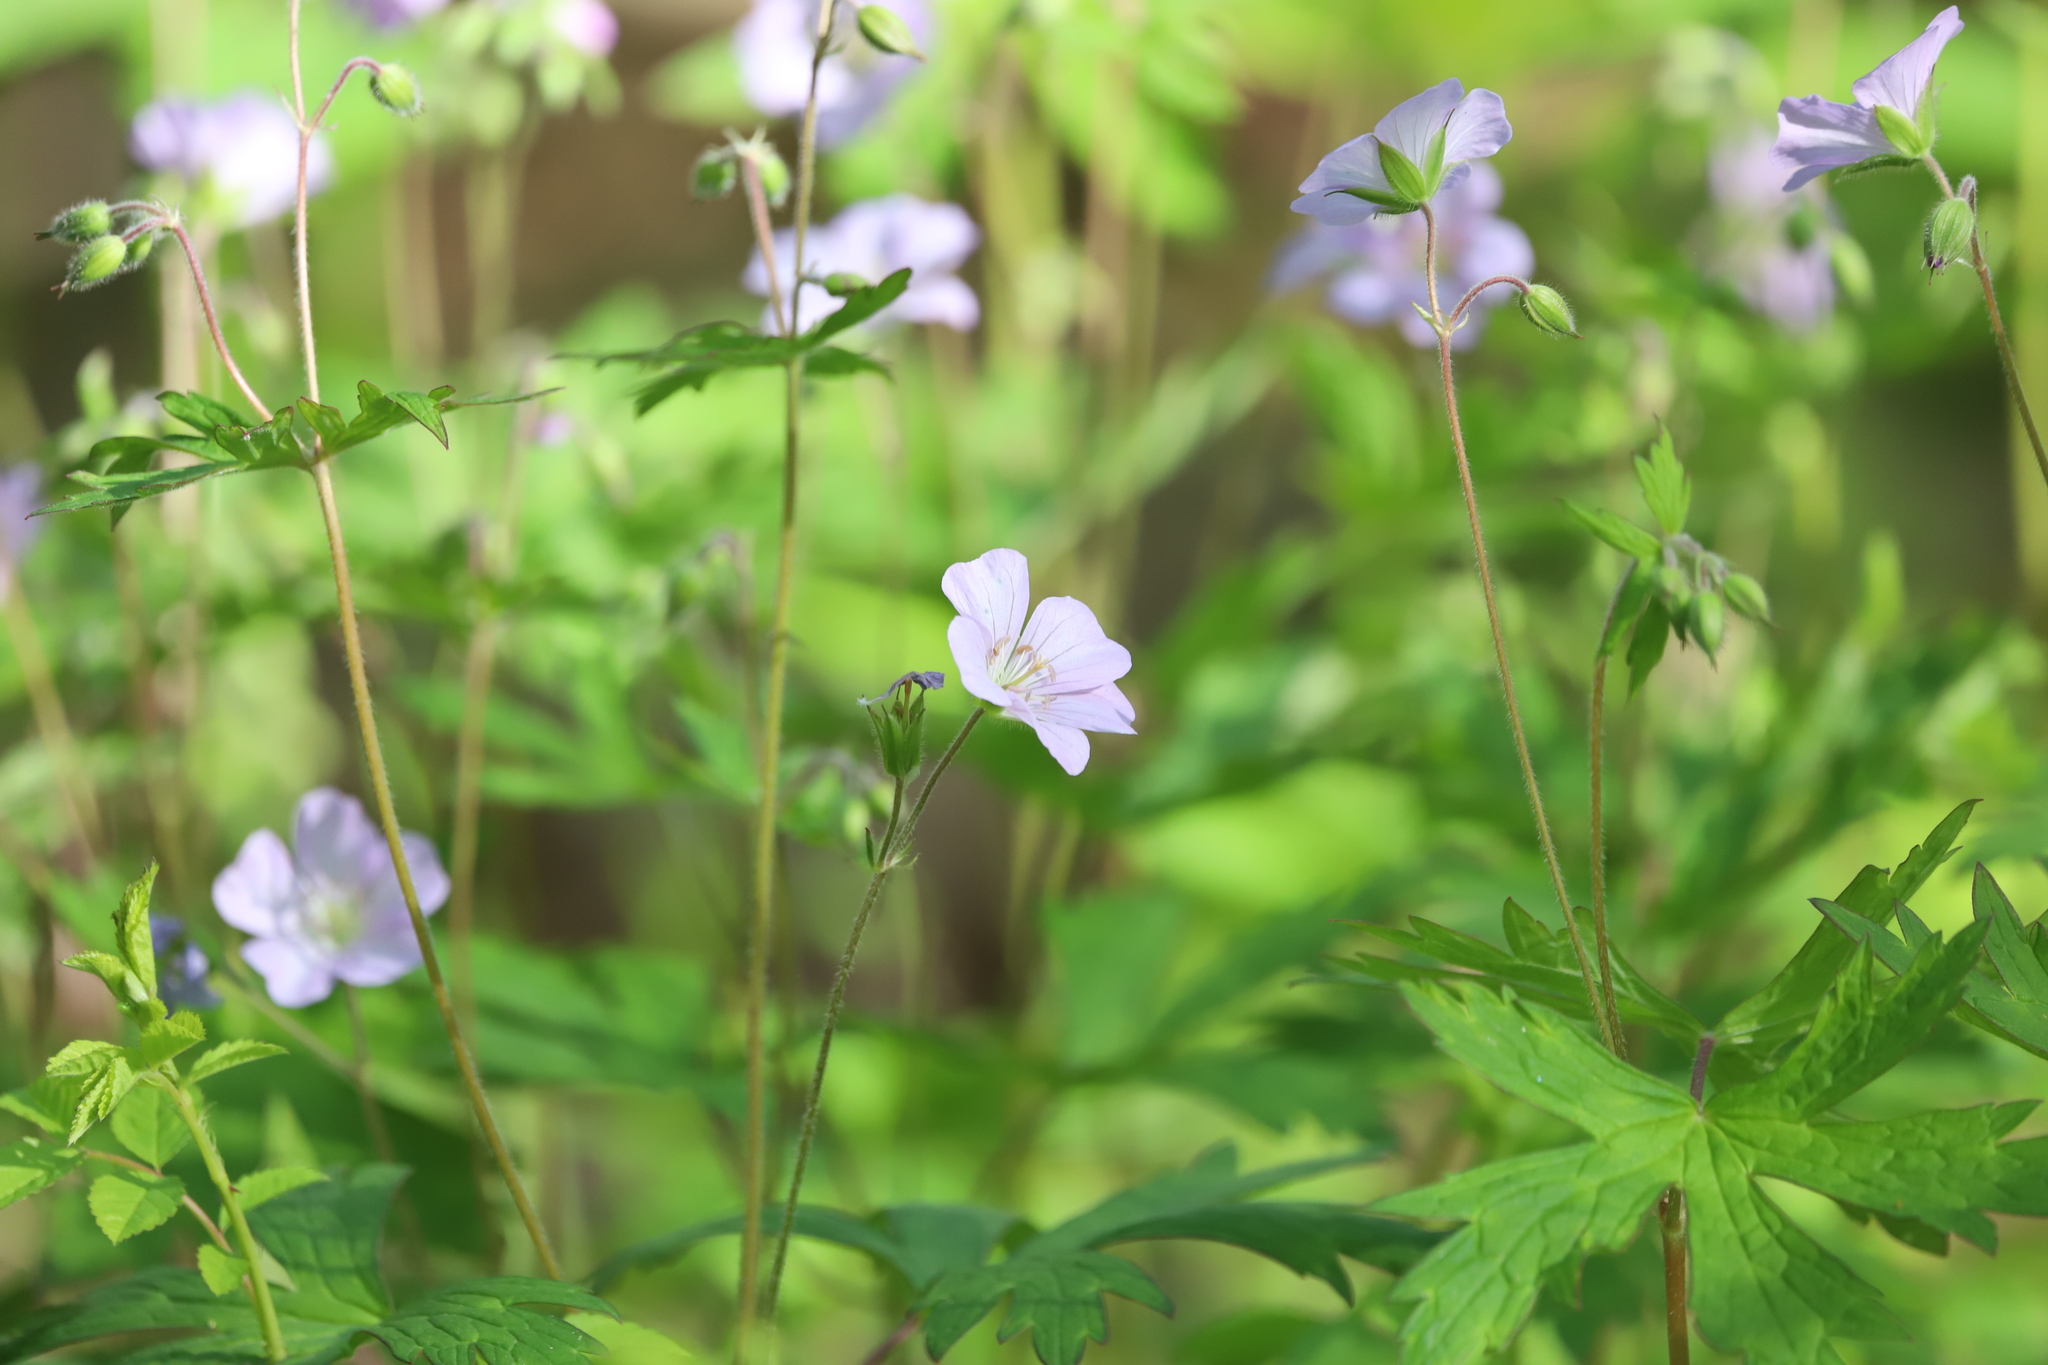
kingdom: Plantae
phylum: Tracheophyta
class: Magnoliopsida
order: Geraniales
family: Geraniaceae
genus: Geranium
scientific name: Geranium maculatum
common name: Spotted geranium
